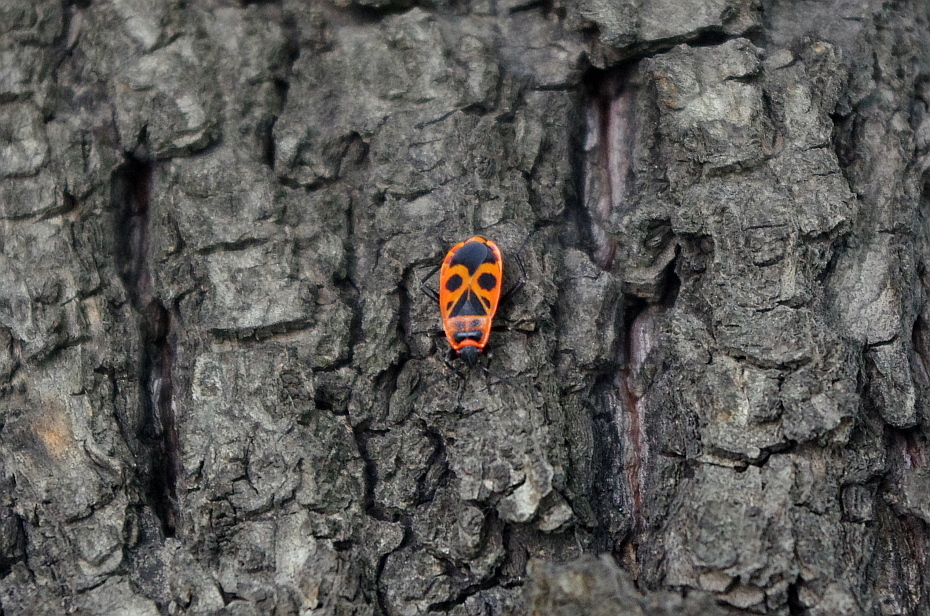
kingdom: Animalia
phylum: Arthropoda
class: Insecta
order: Hemiptera
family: Pyrrhocoridae
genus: Pyrrhocoris
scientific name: Pyrrhocoris apterus
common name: Firebug
